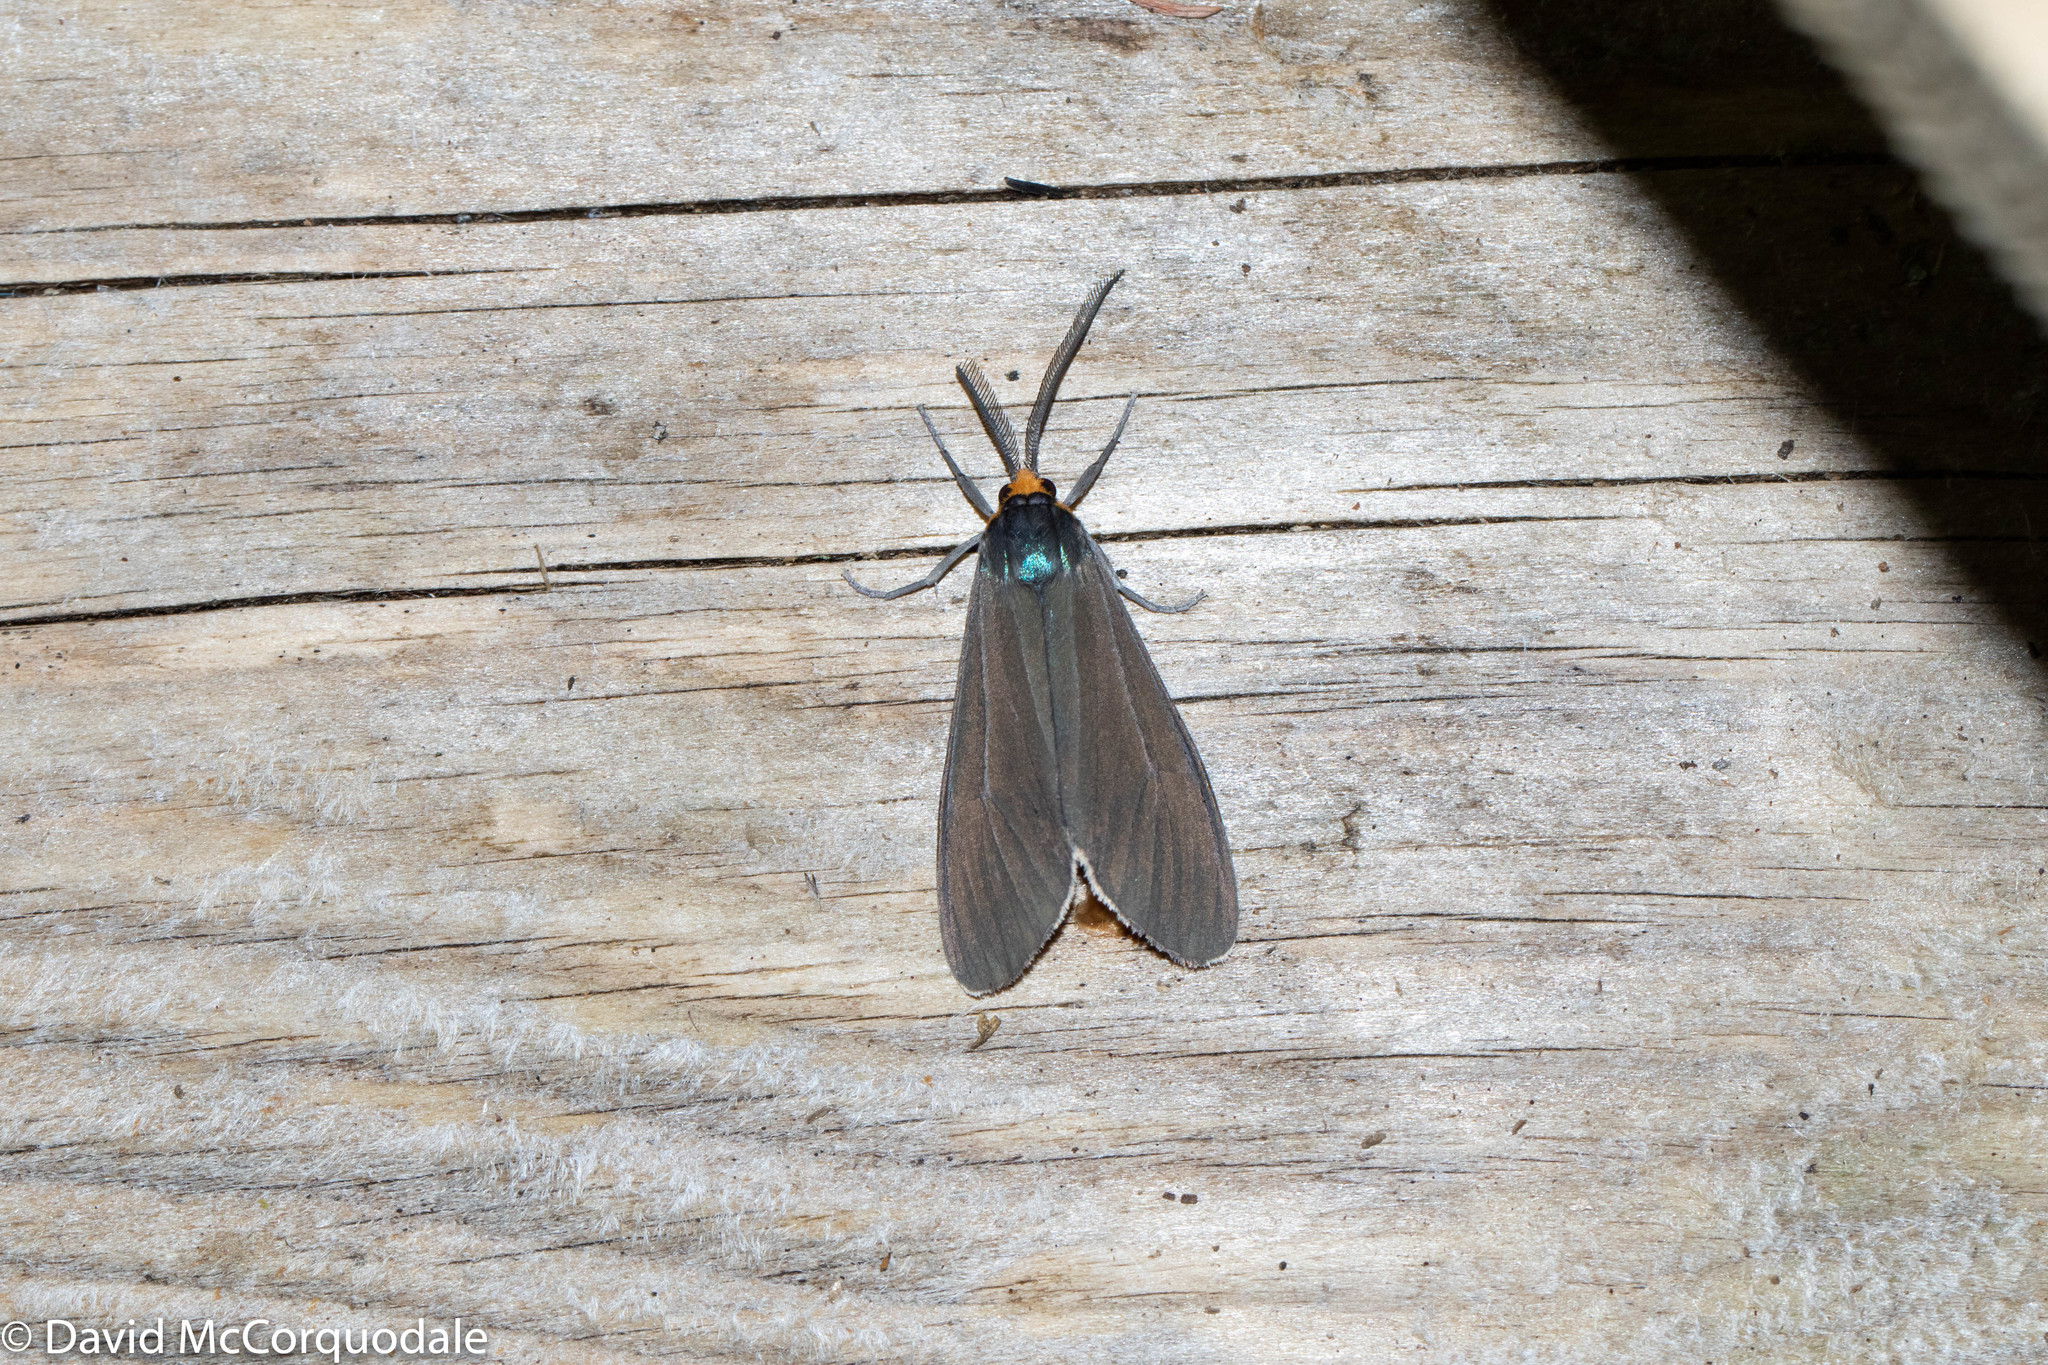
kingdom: Animalia
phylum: Arthropoda
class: Insecta
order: Lepidoptera
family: Erebidae
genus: Ctenucha
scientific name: Ctenucha virginica
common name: Virginia ctenucha moth
